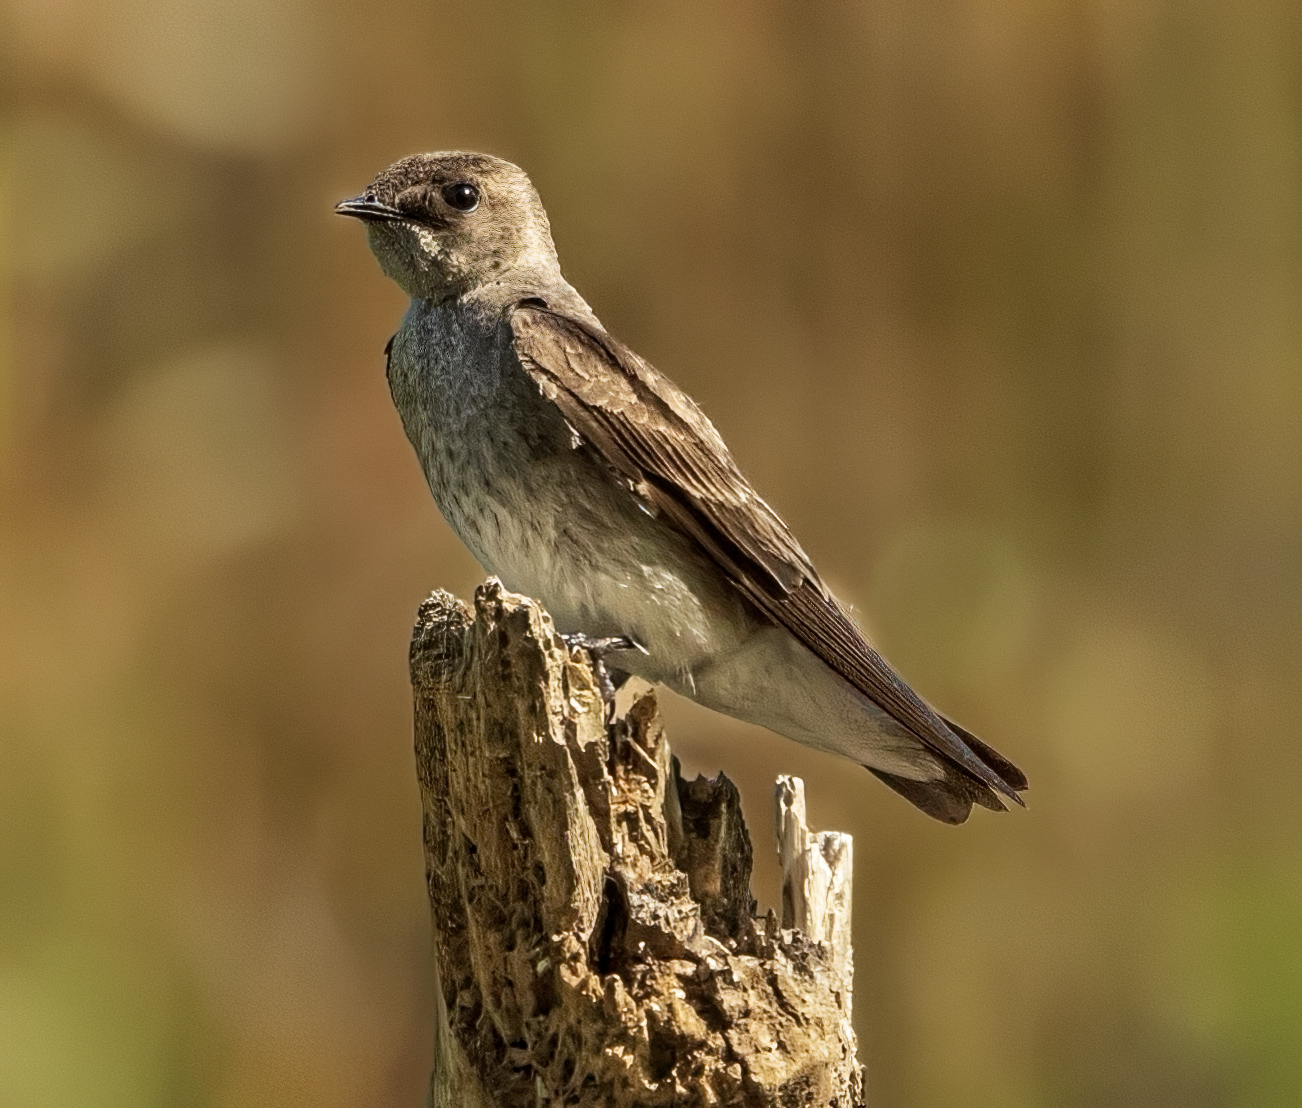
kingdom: Animalia
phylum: Chordata
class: Aves
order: Passeriformes
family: Hirundinidae
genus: Stelgidopteryx
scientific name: Stelgidopteryx serripennis
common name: Northern rough-winged swallow
